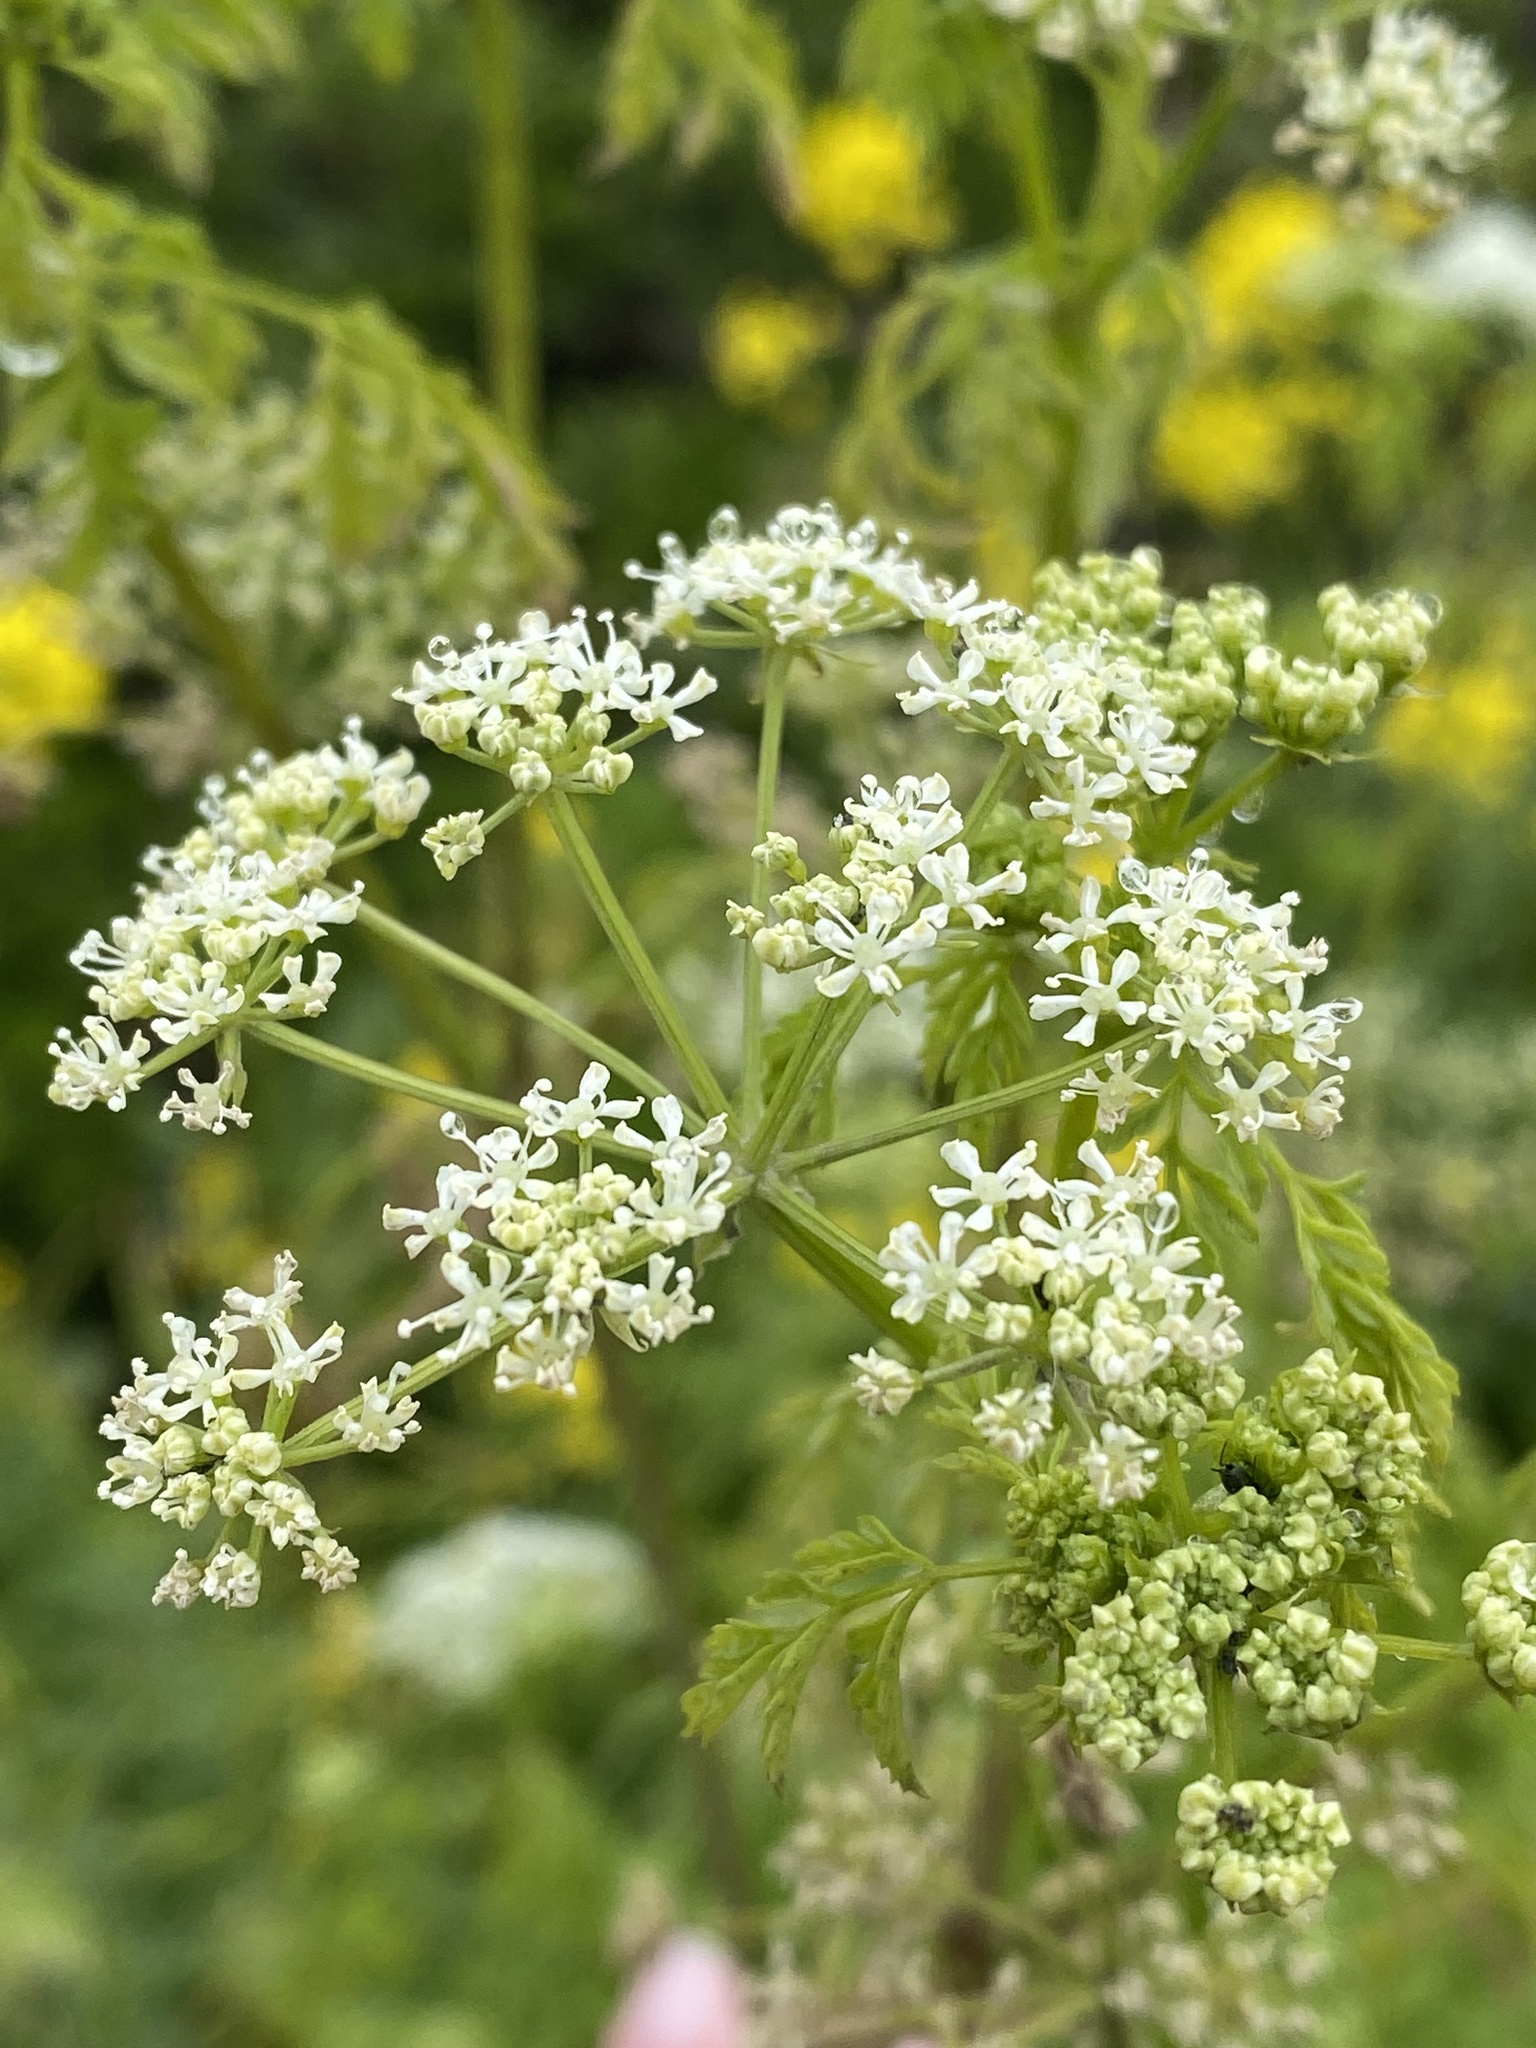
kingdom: Plantae
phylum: Tracheophyta
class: Magnoliopsida
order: Apiales
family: Apiaceae
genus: Conium
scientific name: Conium maculatum
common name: Hemlock
